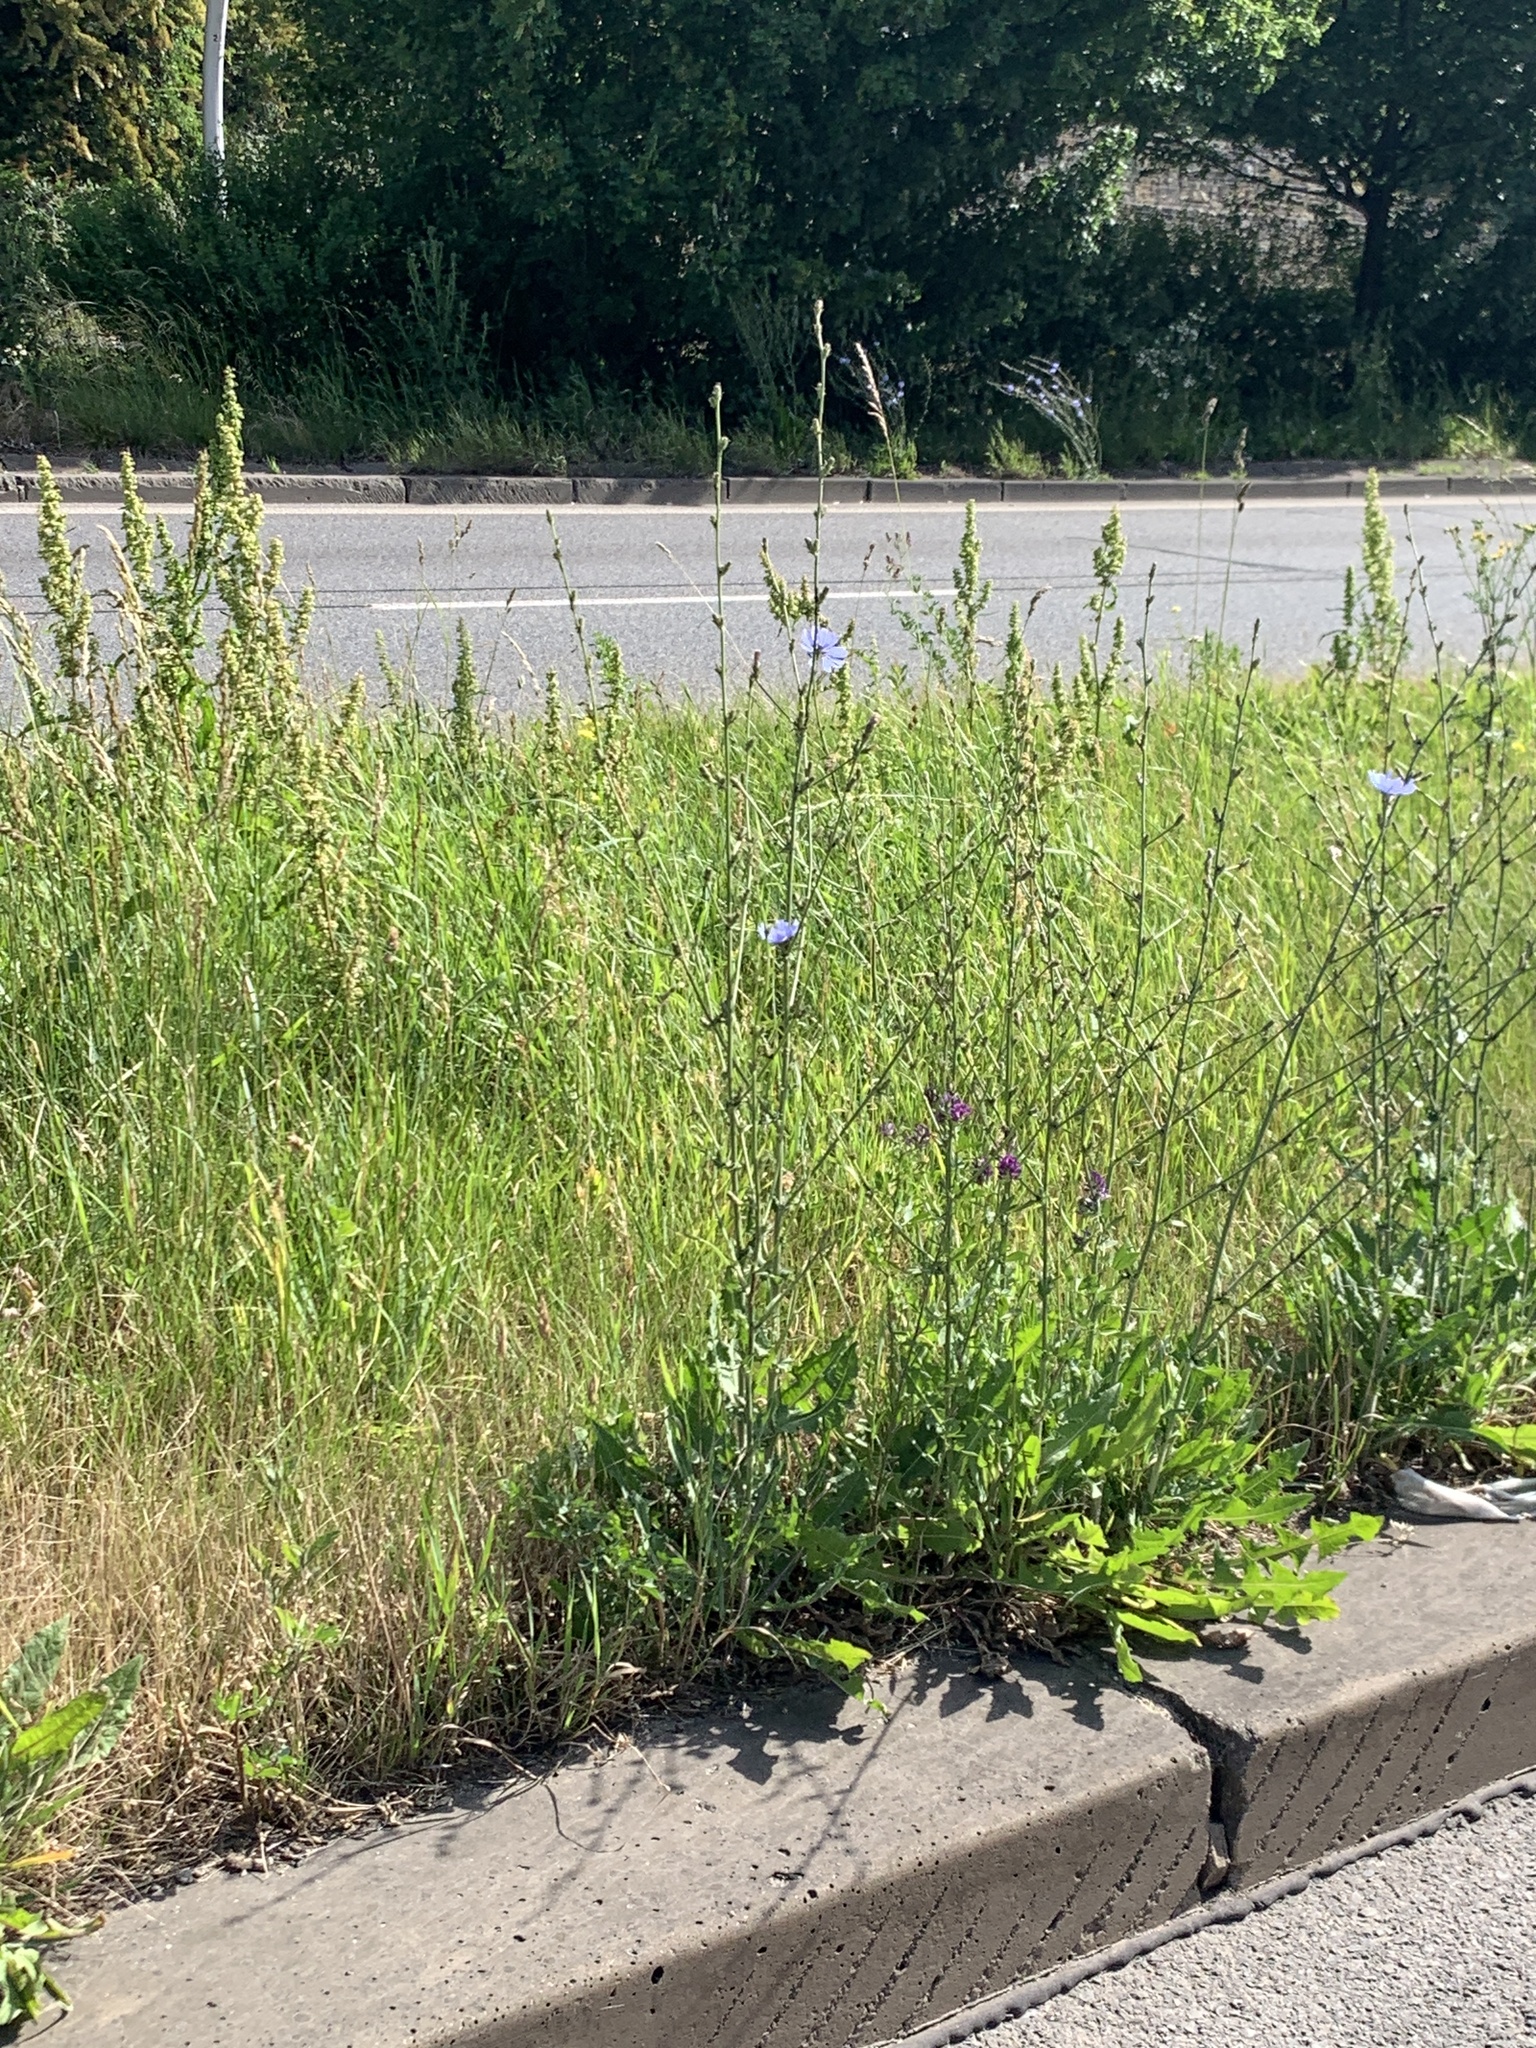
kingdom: Plantae
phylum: Tracheophyta
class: Magnoliopsida
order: Asterales
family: Asteraceae
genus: Cichorium
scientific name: Cichorium intybus
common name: Chicory
